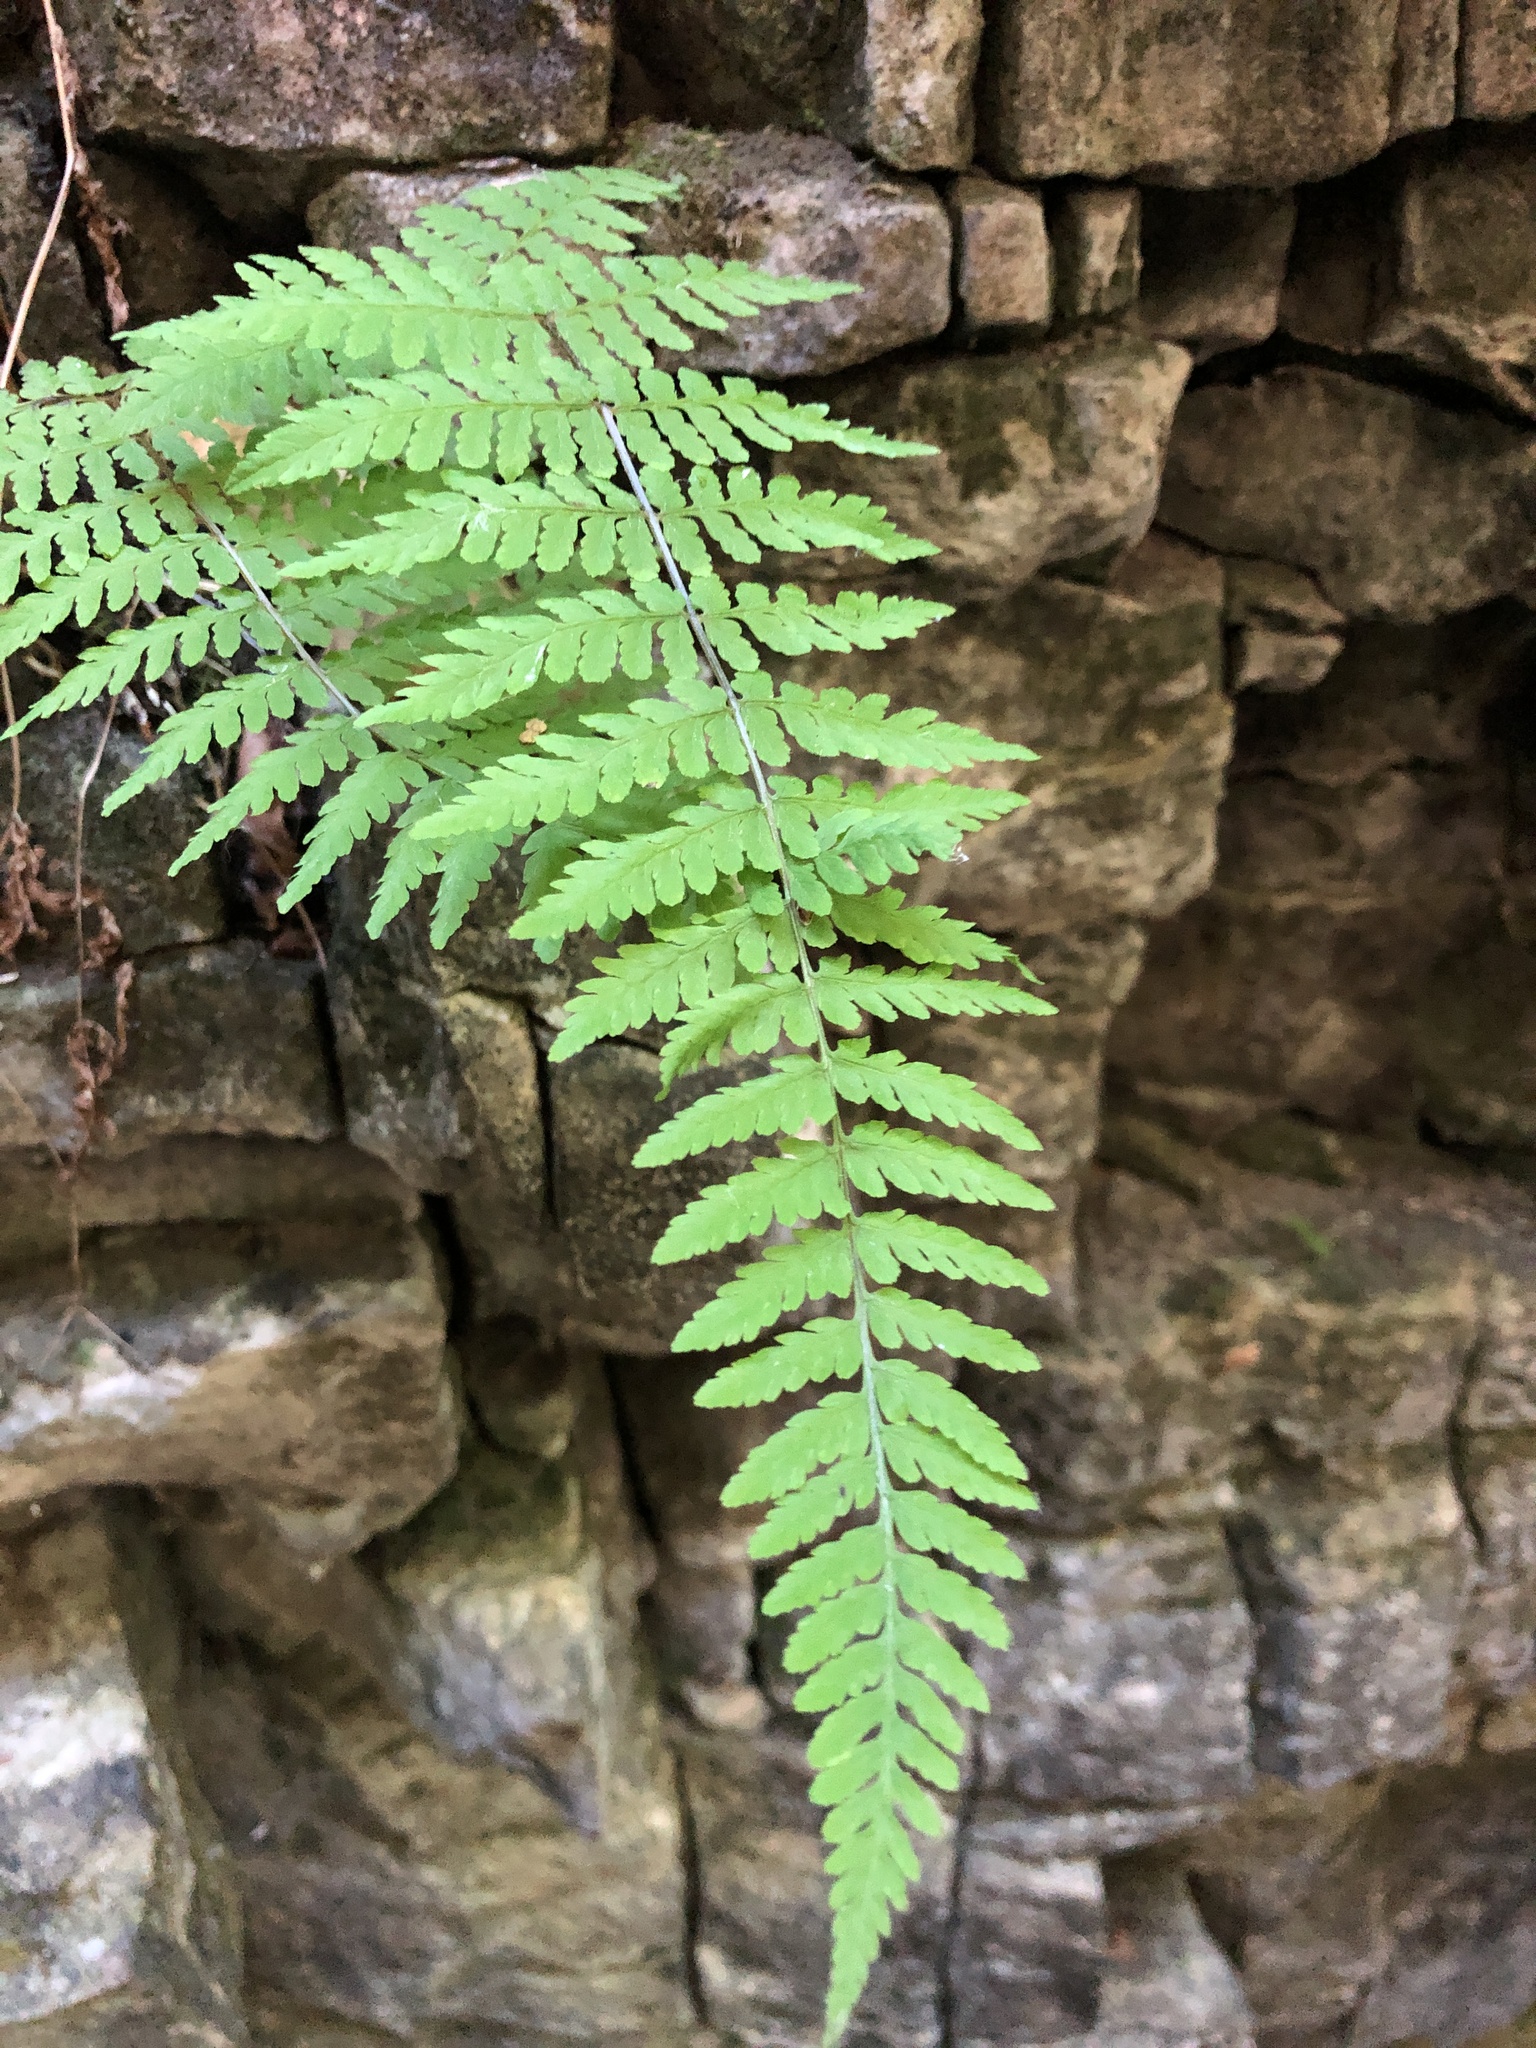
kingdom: Plantae
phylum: Tracheophyta
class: Polypodiopsida
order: Polypodiales
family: Cystopteridaceae
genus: Cystopteris
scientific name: Cystopteris bulbifera
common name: Bulblet bladder fern
